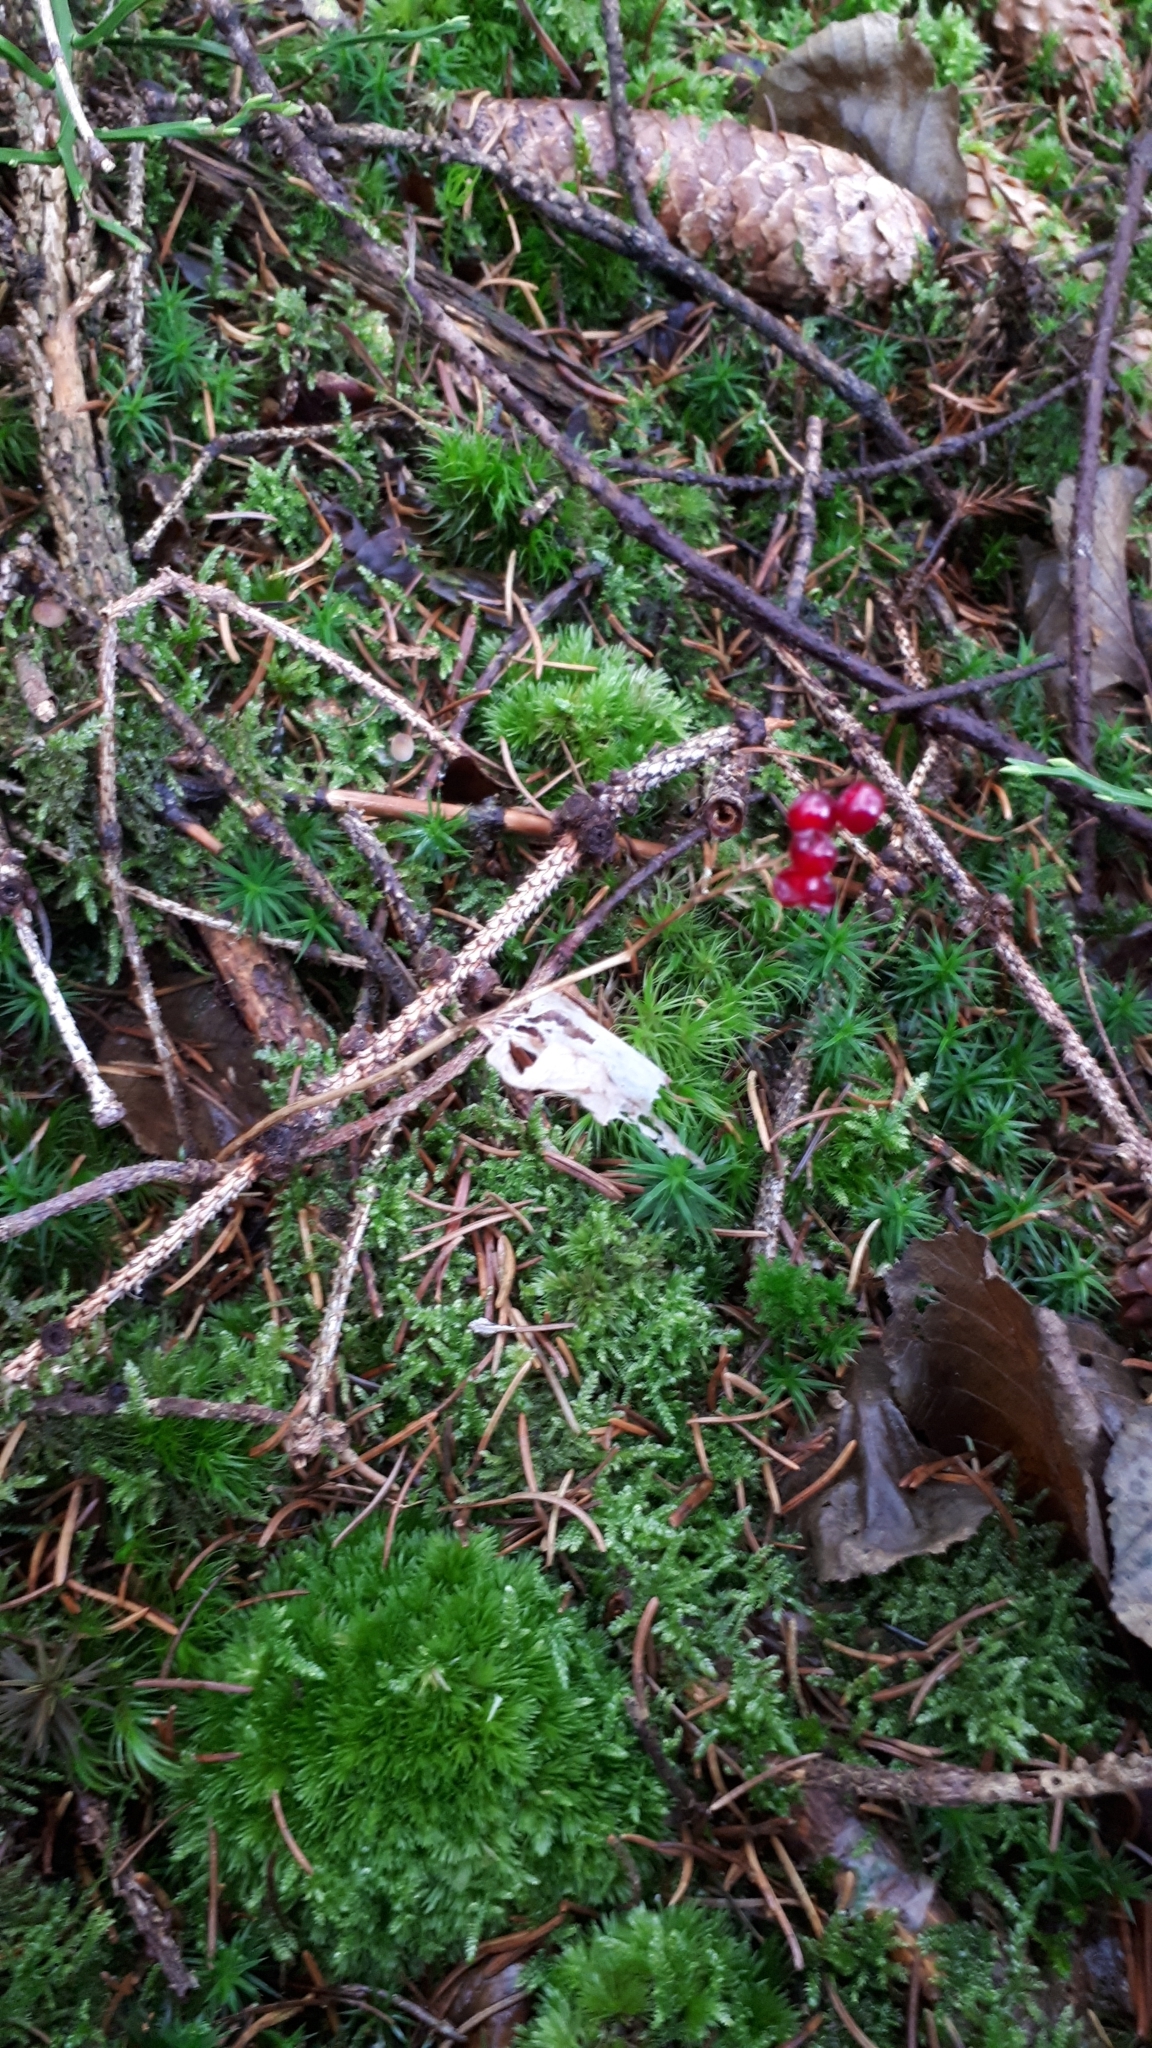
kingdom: Plantae
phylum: Tracheophyta
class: Liliopsida
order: Asparagales
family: Asparagaceae
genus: Maianthemum
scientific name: Maianthemum bifolium
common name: May lily
